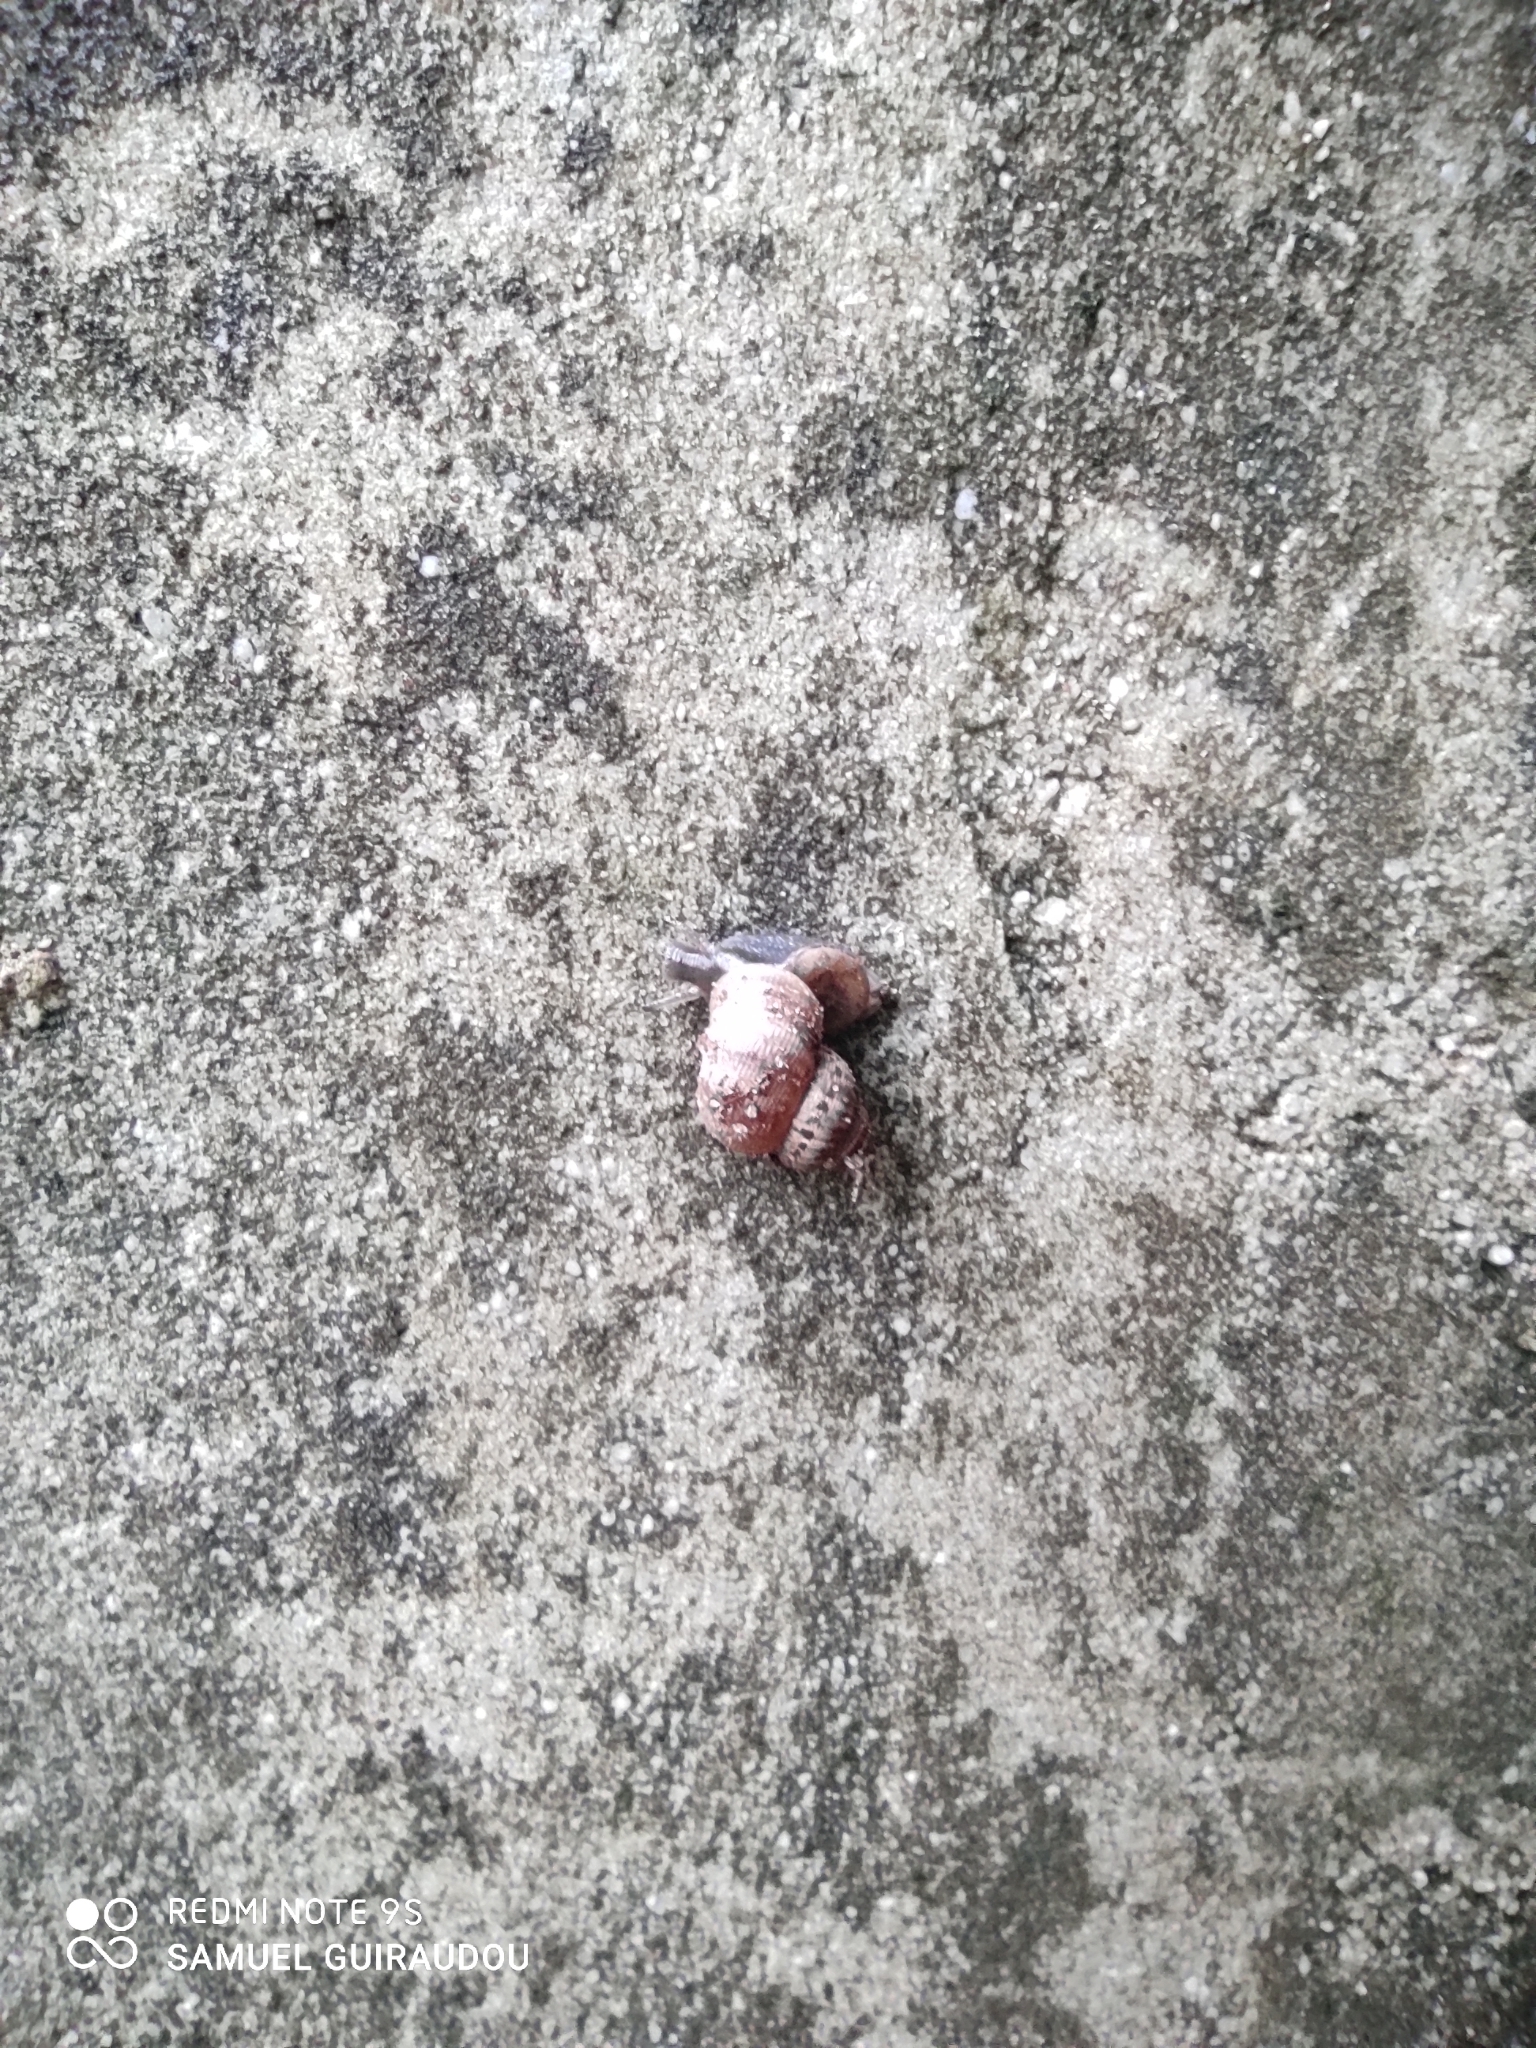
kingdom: Animalia
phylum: Mollusca
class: Gastropoda
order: Littorinimorpha
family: Pomatiidae
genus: Pomatias
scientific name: Pomatias elegans
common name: Red-mouthed snail
